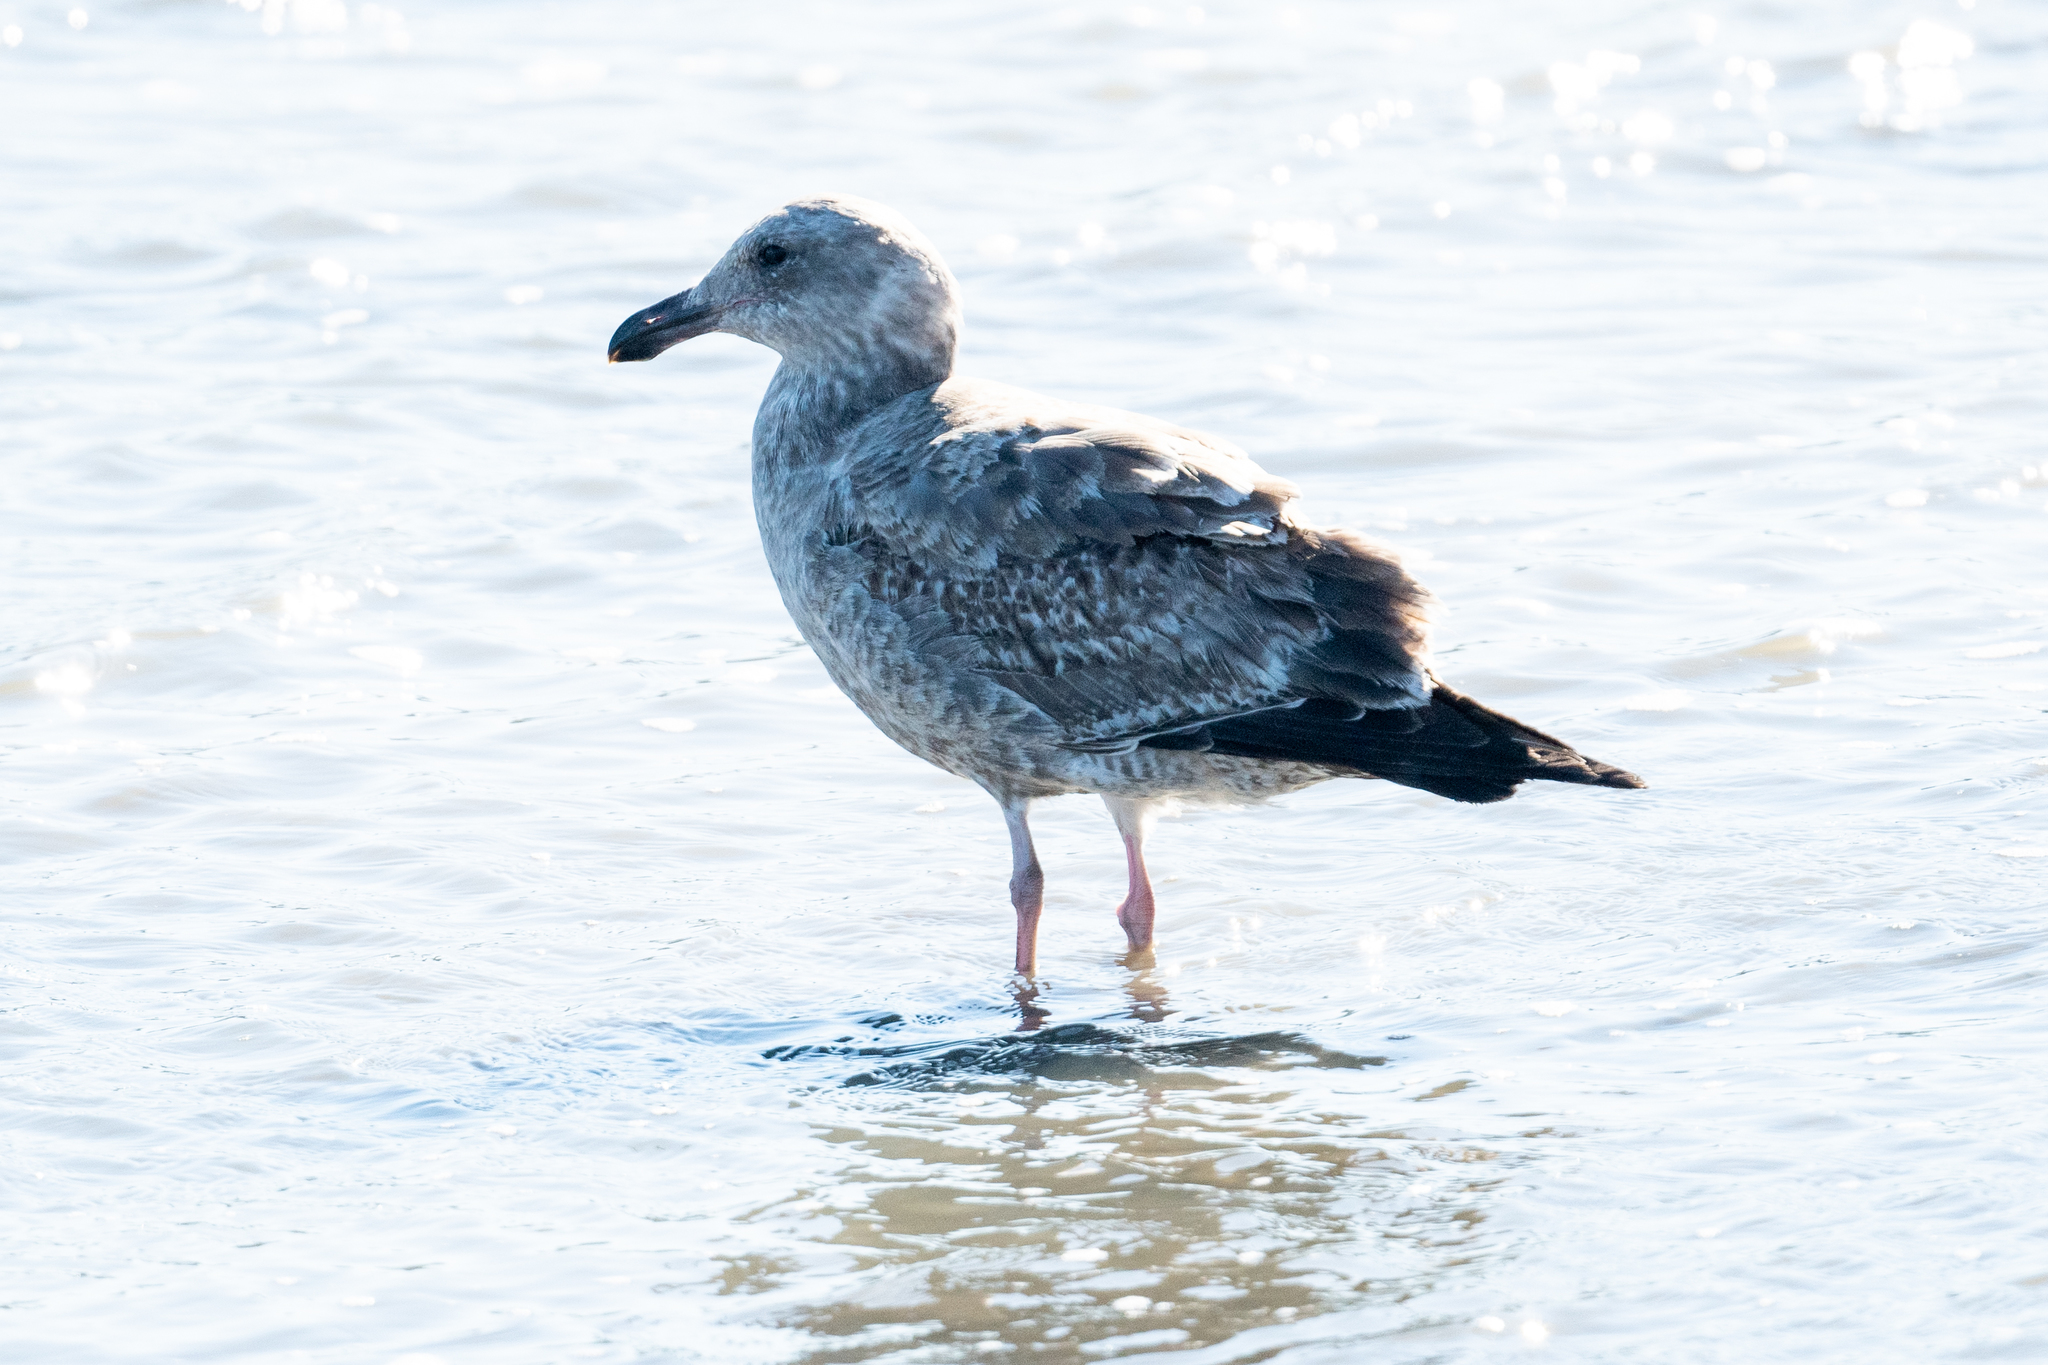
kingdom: Animalia
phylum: Chordata
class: Aves
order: Charadriiformes
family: Laridae
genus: Larus
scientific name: Larus occidentalis
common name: Western gull
